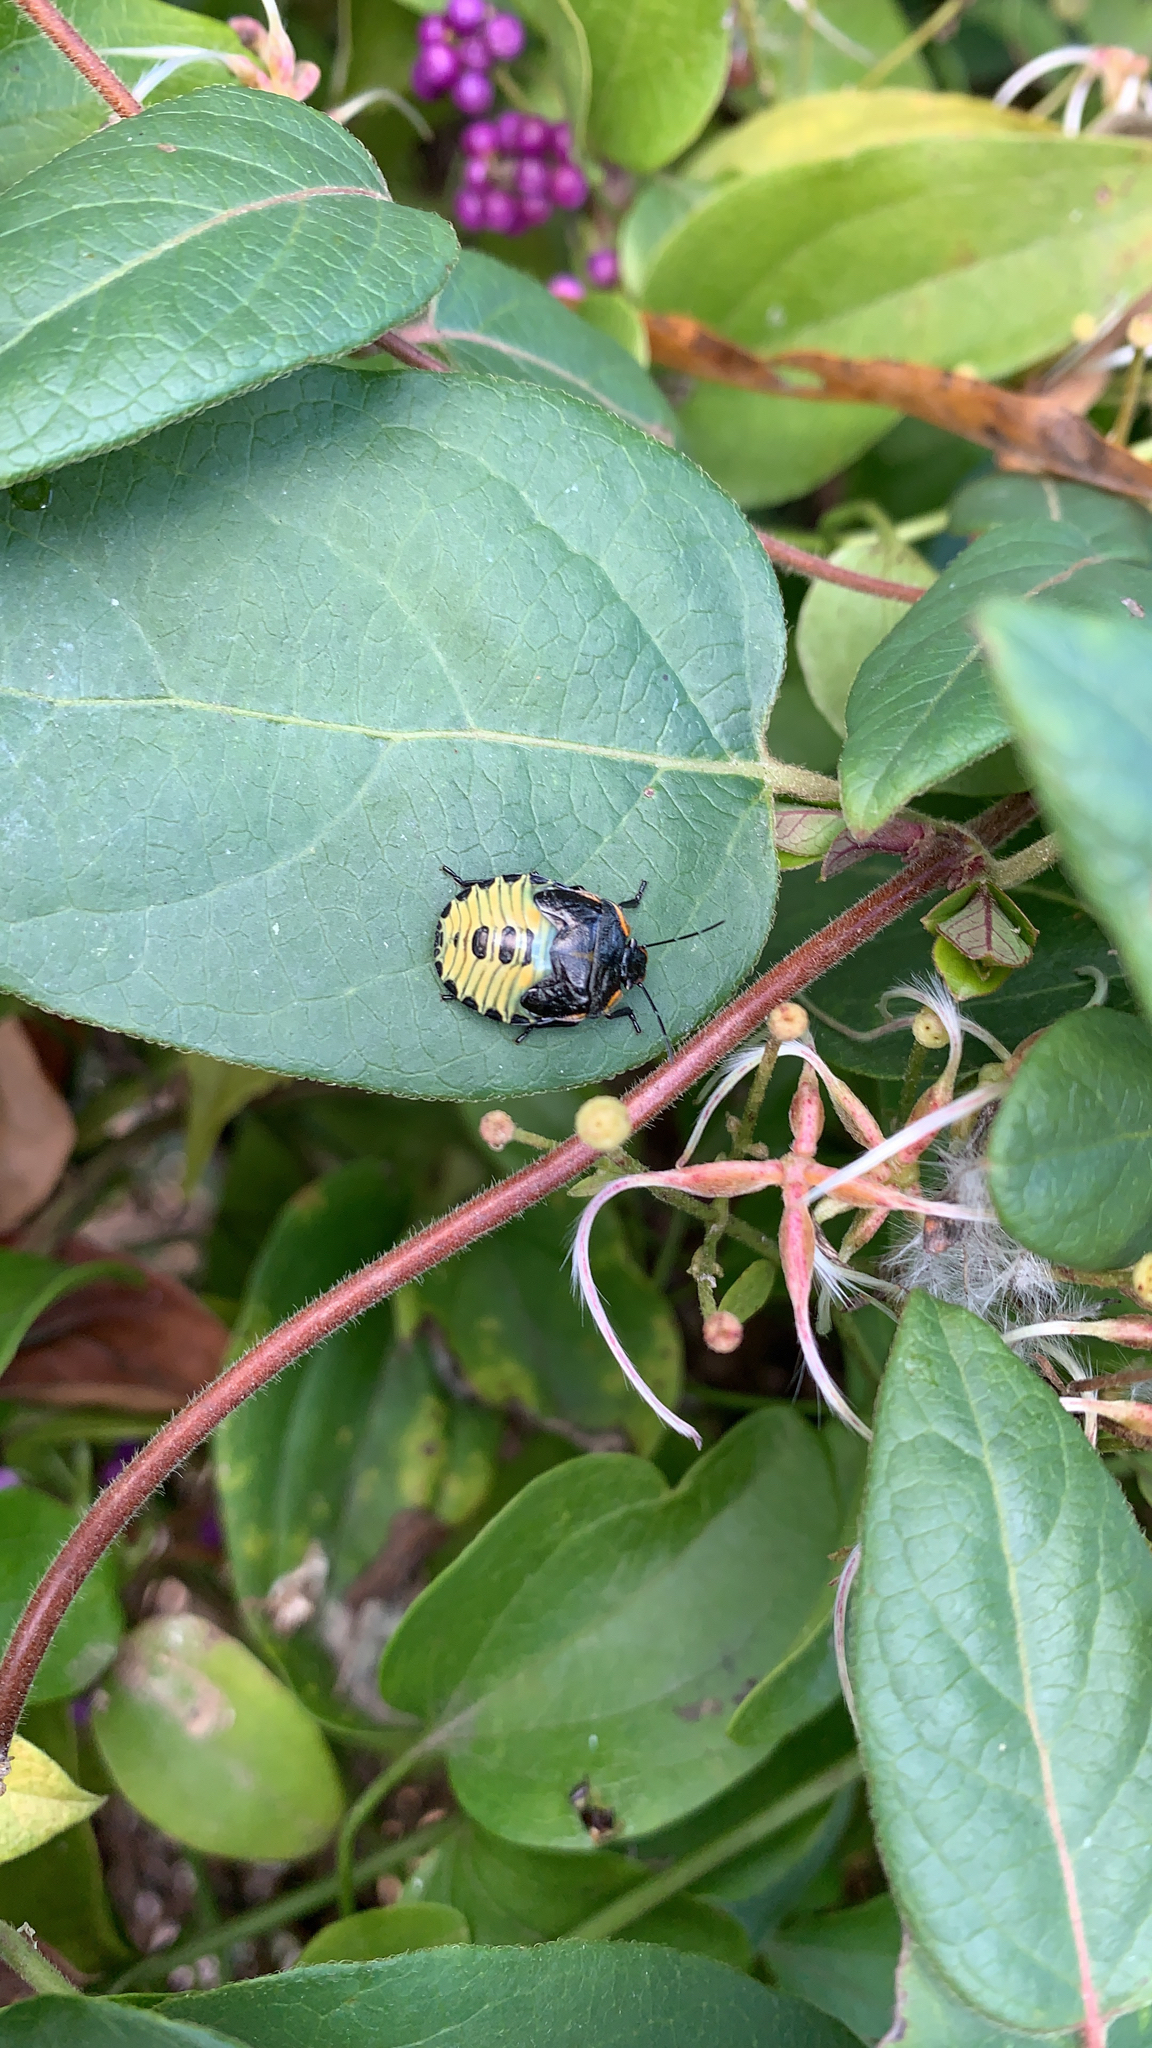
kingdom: Animalia
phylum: Arthropoda
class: Insecta
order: Hemiptera
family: Pentatomidae
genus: Chinavia
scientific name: Chinavia hilaris
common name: Green stink bug
